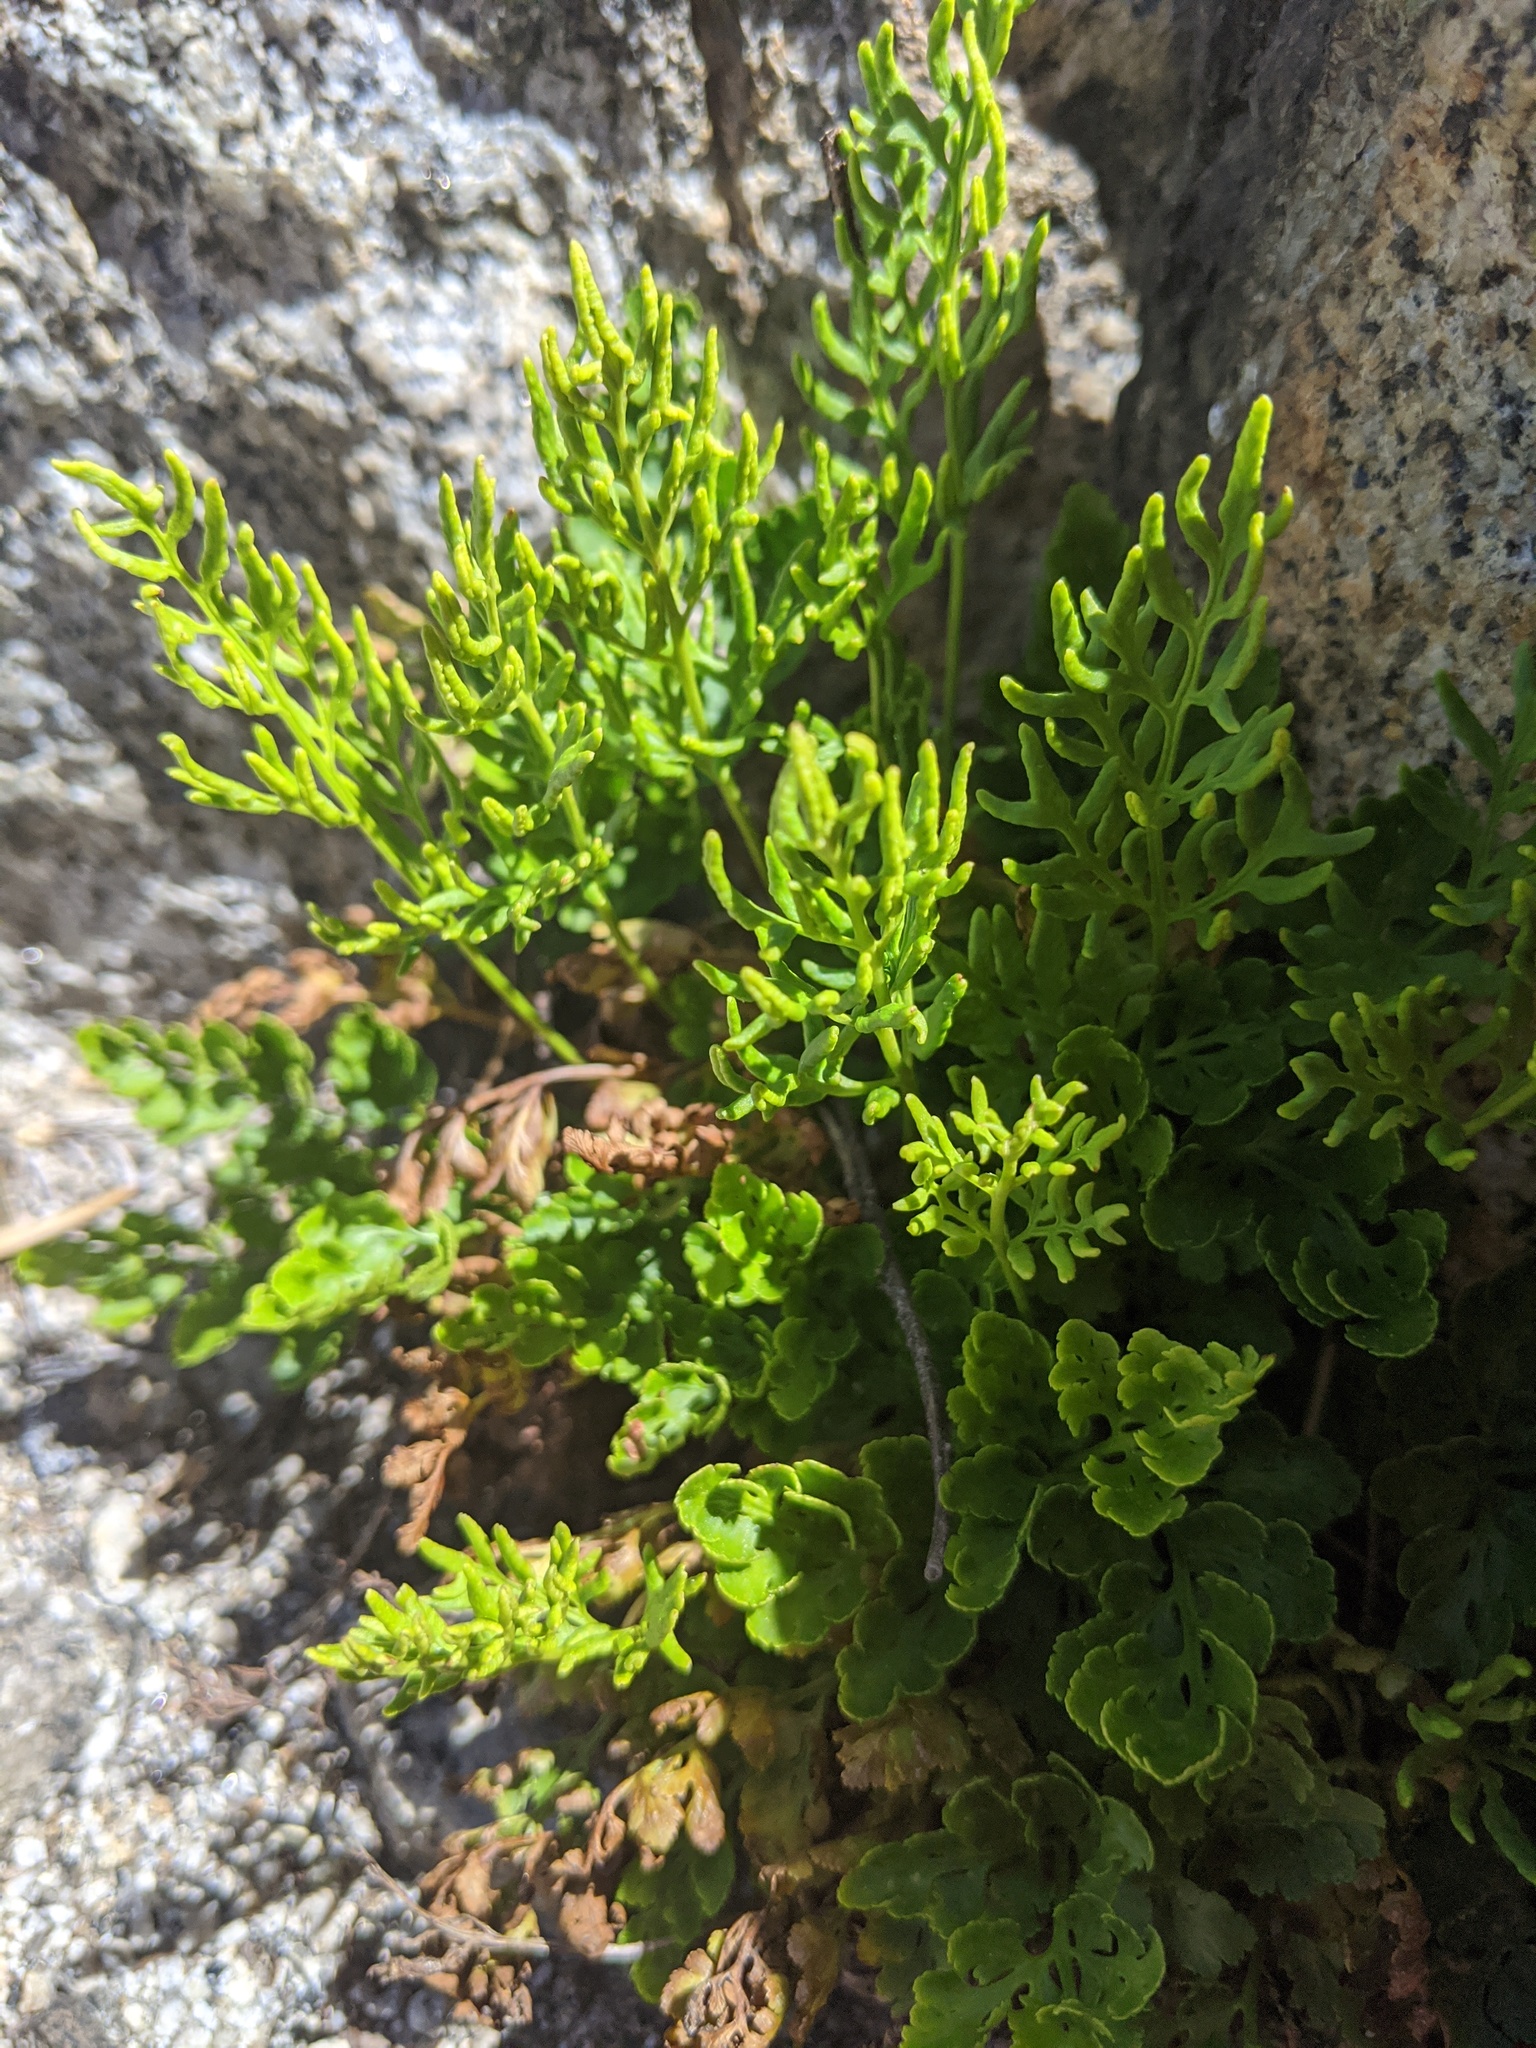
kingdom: Plantae
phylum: Tracheophyta
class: Polypodiopsida
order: Polypodiales
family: Pteridaceae
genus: Cryptogramma
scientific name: Cryptogramma acrostichoides
